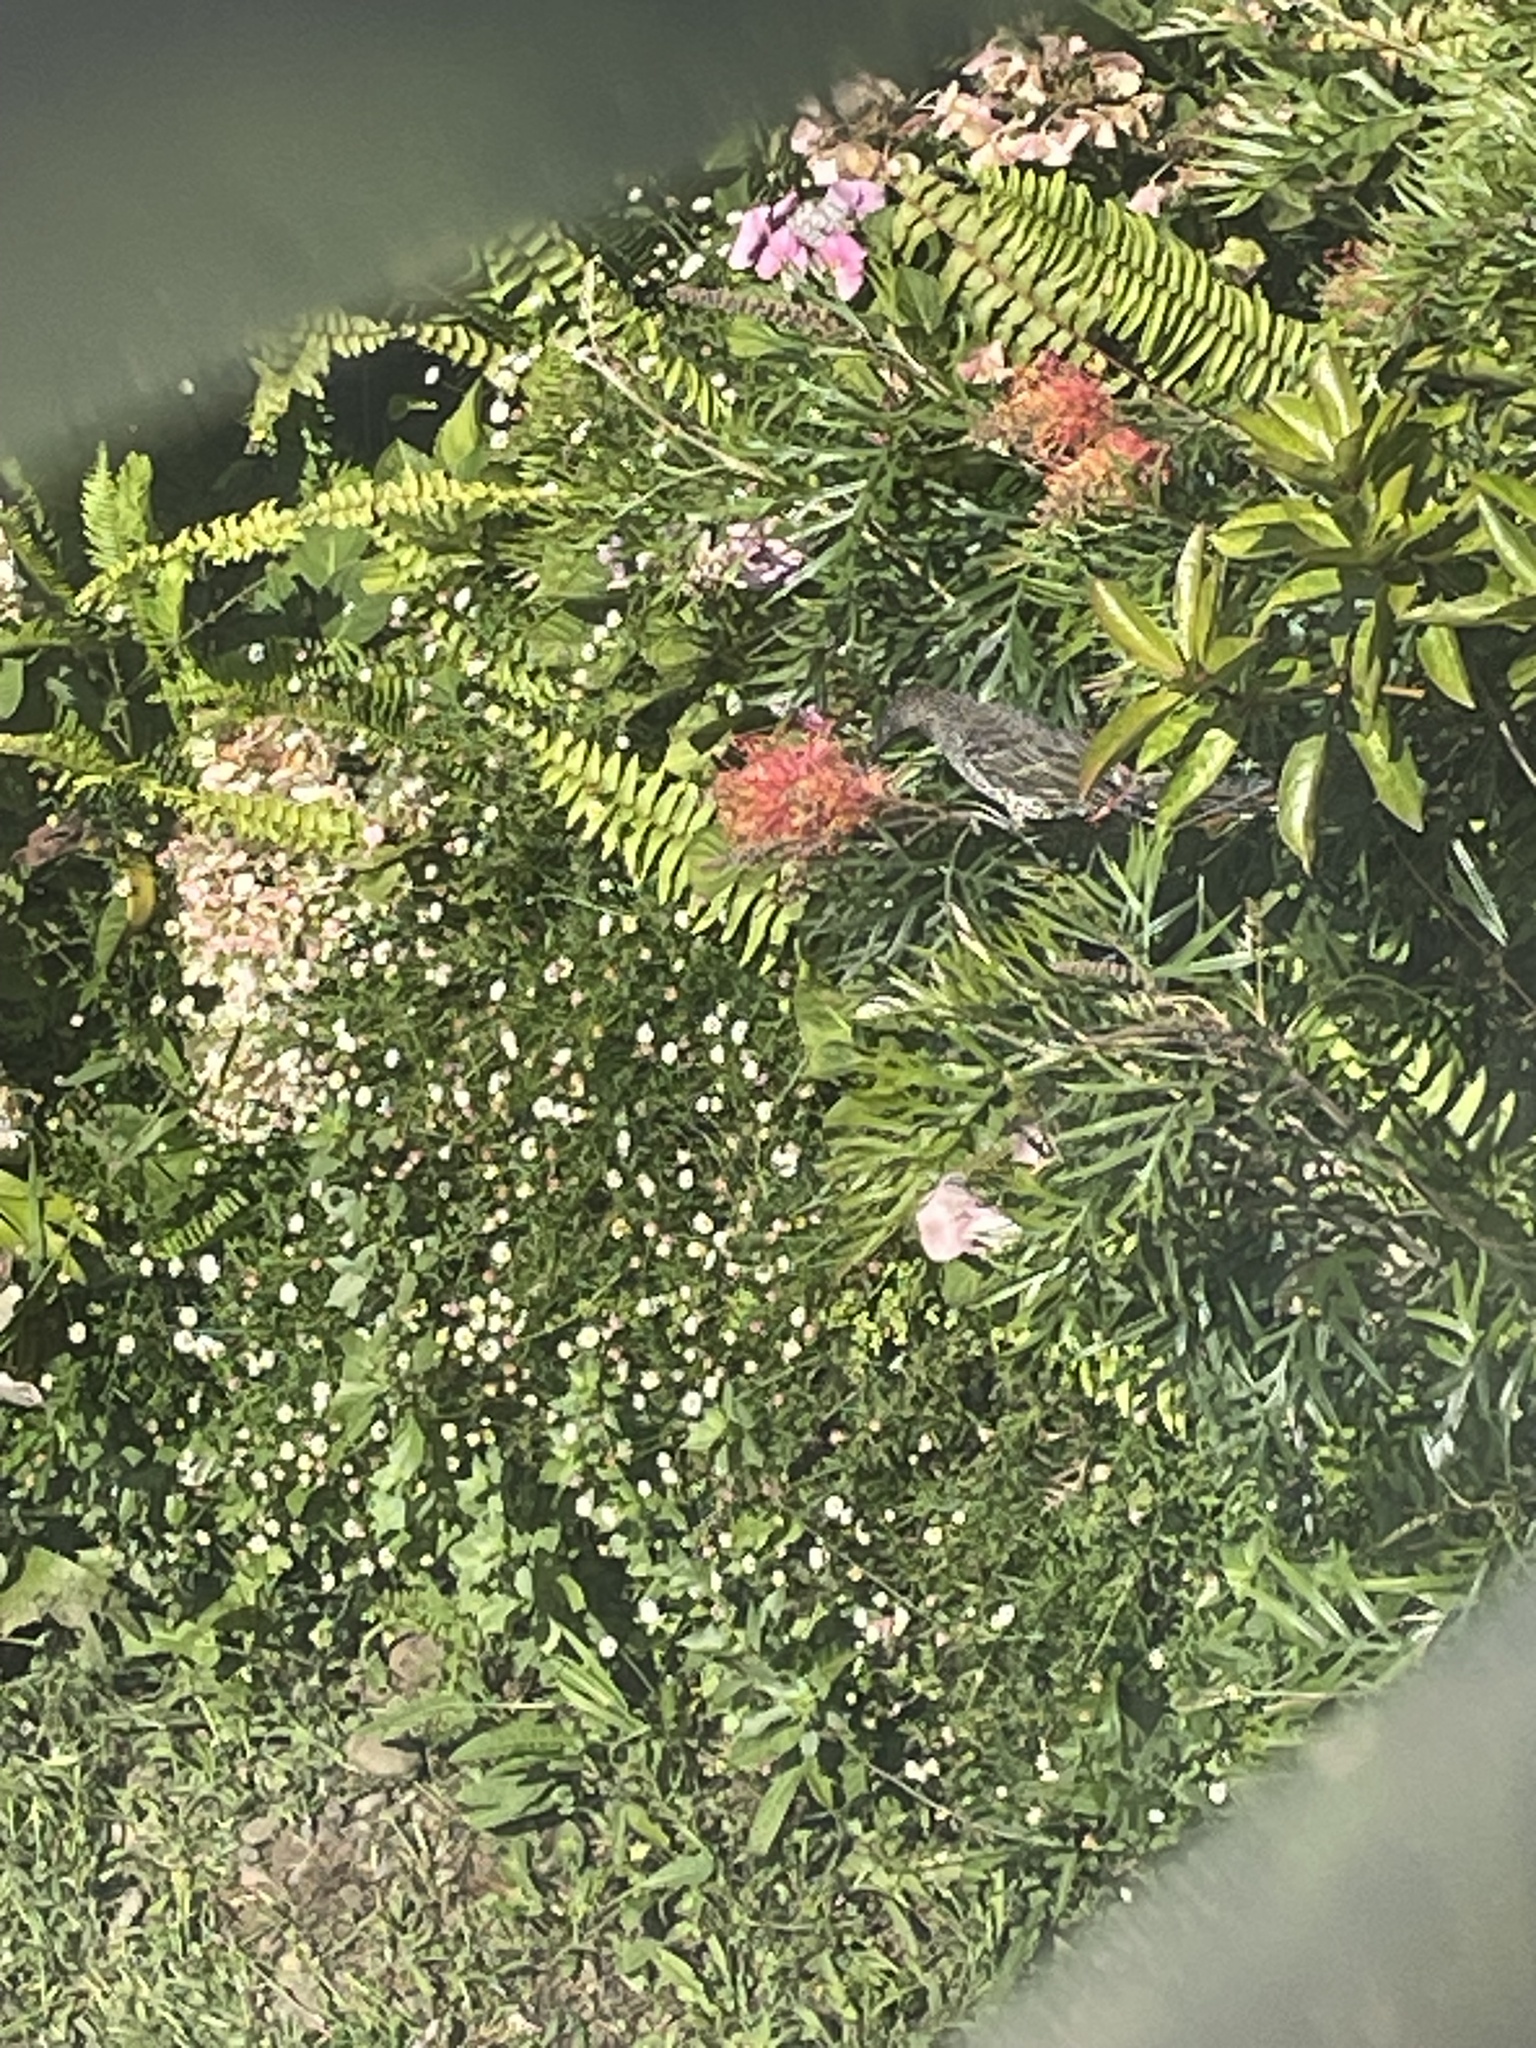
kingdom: Animalia
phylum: Chordata
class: Aves
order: Passeriformes
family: Meliphagidae
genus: Anthochaera
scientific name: Anthochaera chrysoptera
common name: Little wattlebird
